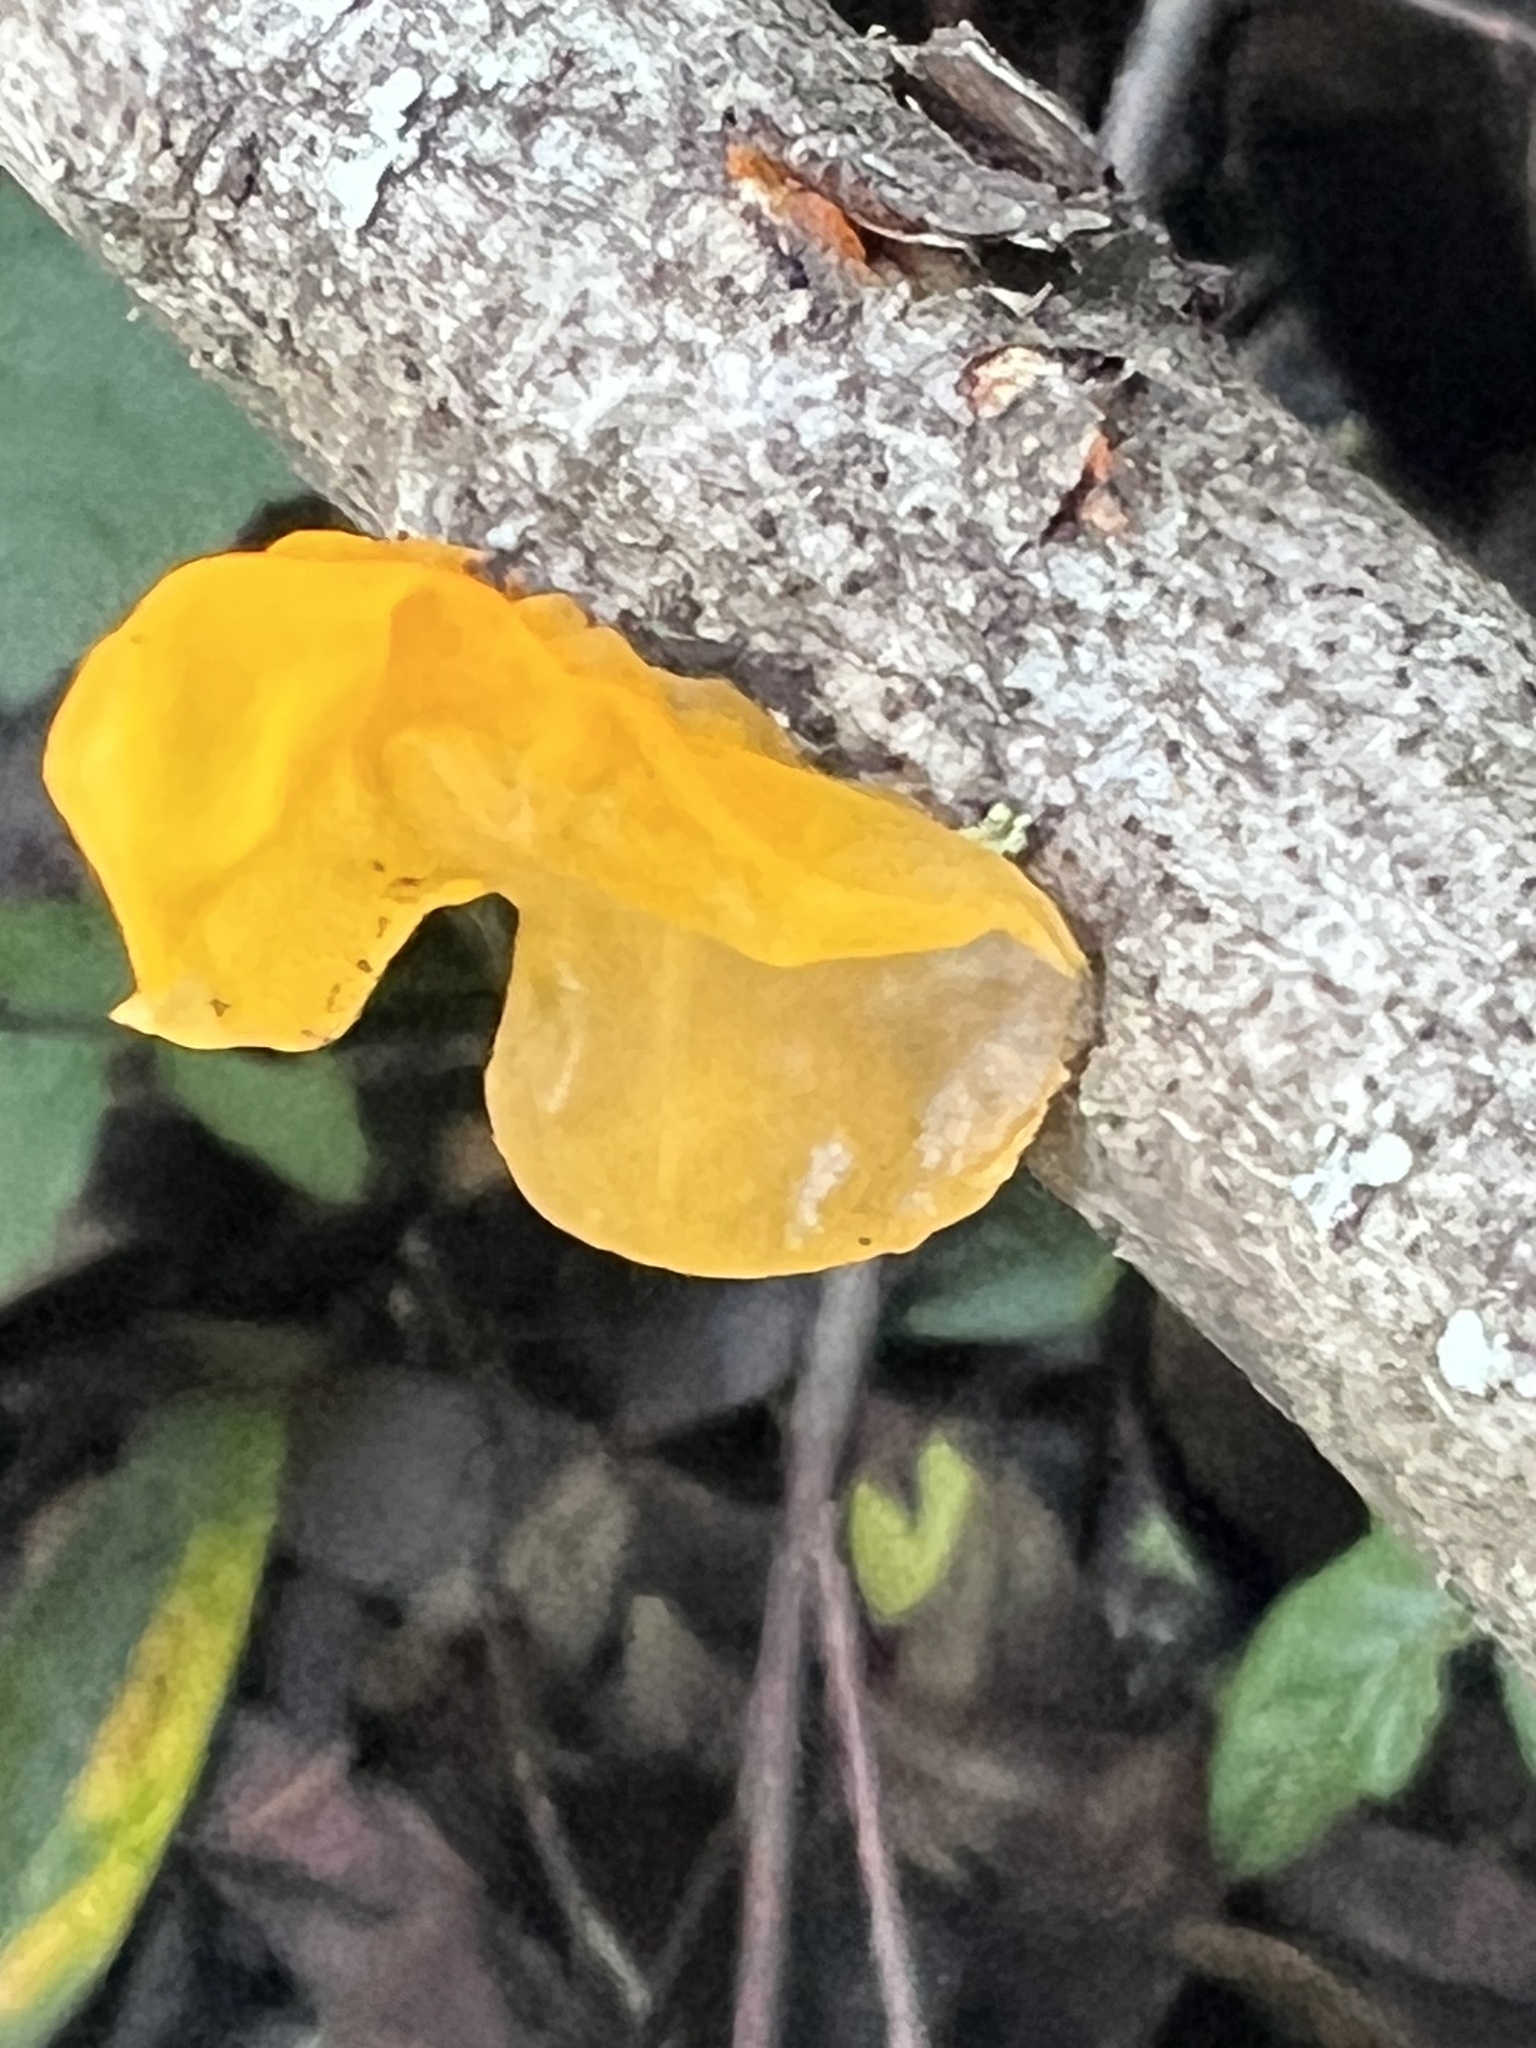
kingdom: Fungi
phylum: Basidiomycota
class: Tremellomycetes
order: Tremellales
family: Tremellaceae
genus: Tremella
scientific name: Tremella mesenterica
